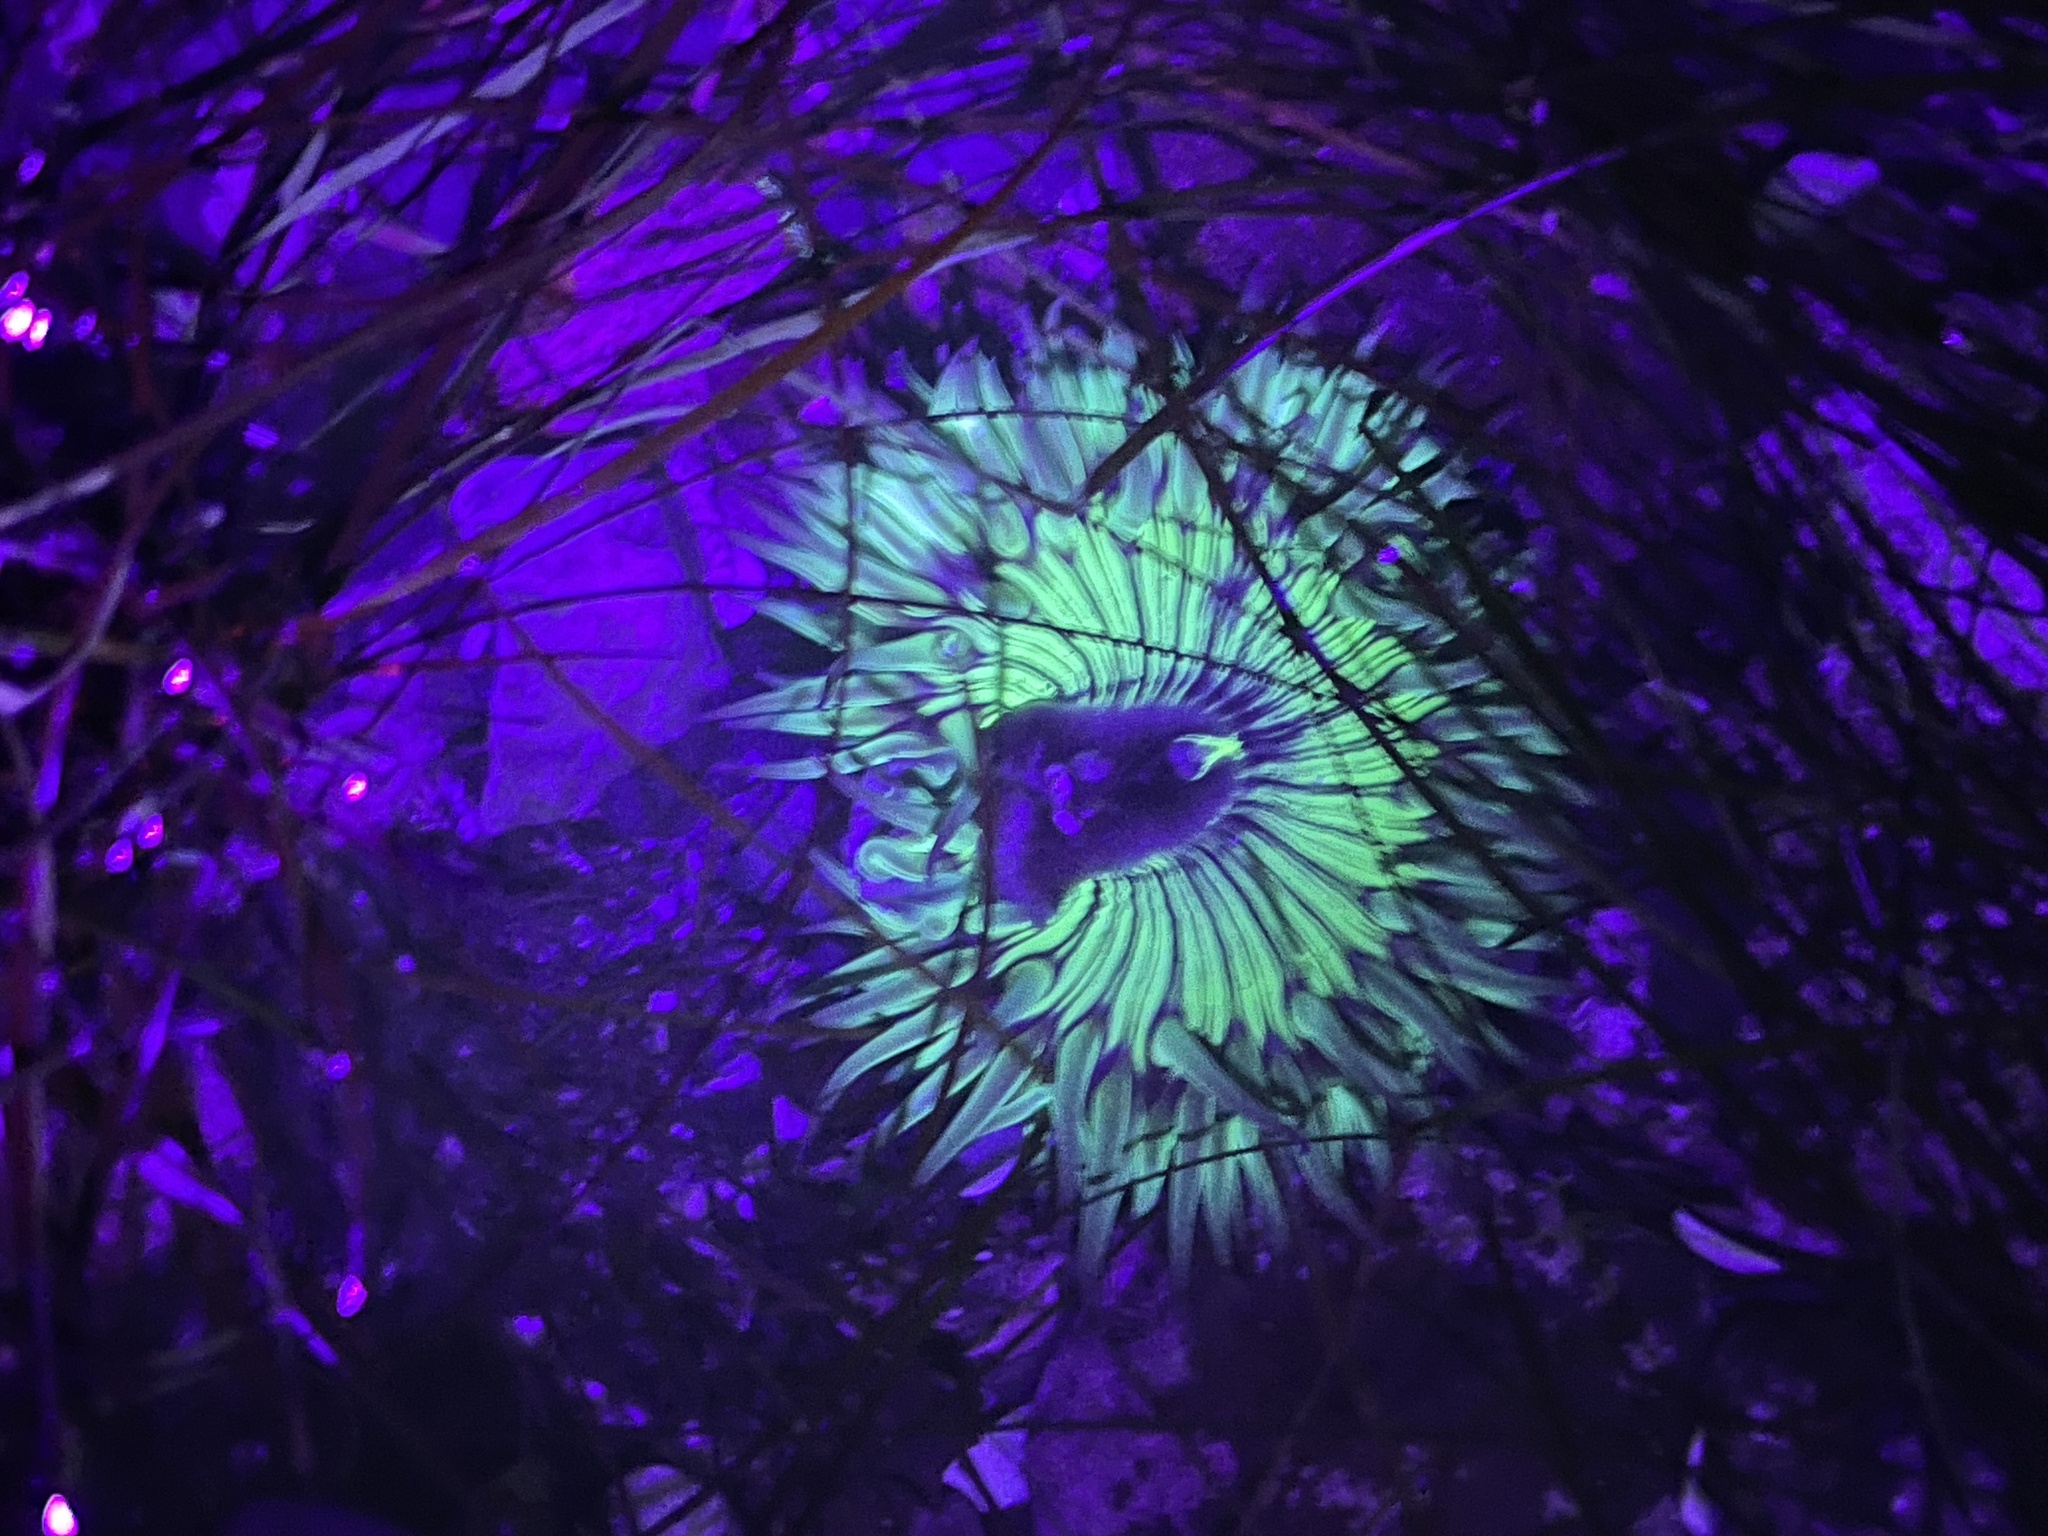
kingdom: Animalia
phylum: Cnidaria
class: Anthozoa
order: Actiniaria
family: Actiniidae
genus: Anthopleura
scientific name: Anthopleura sola
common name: Sun anemone
